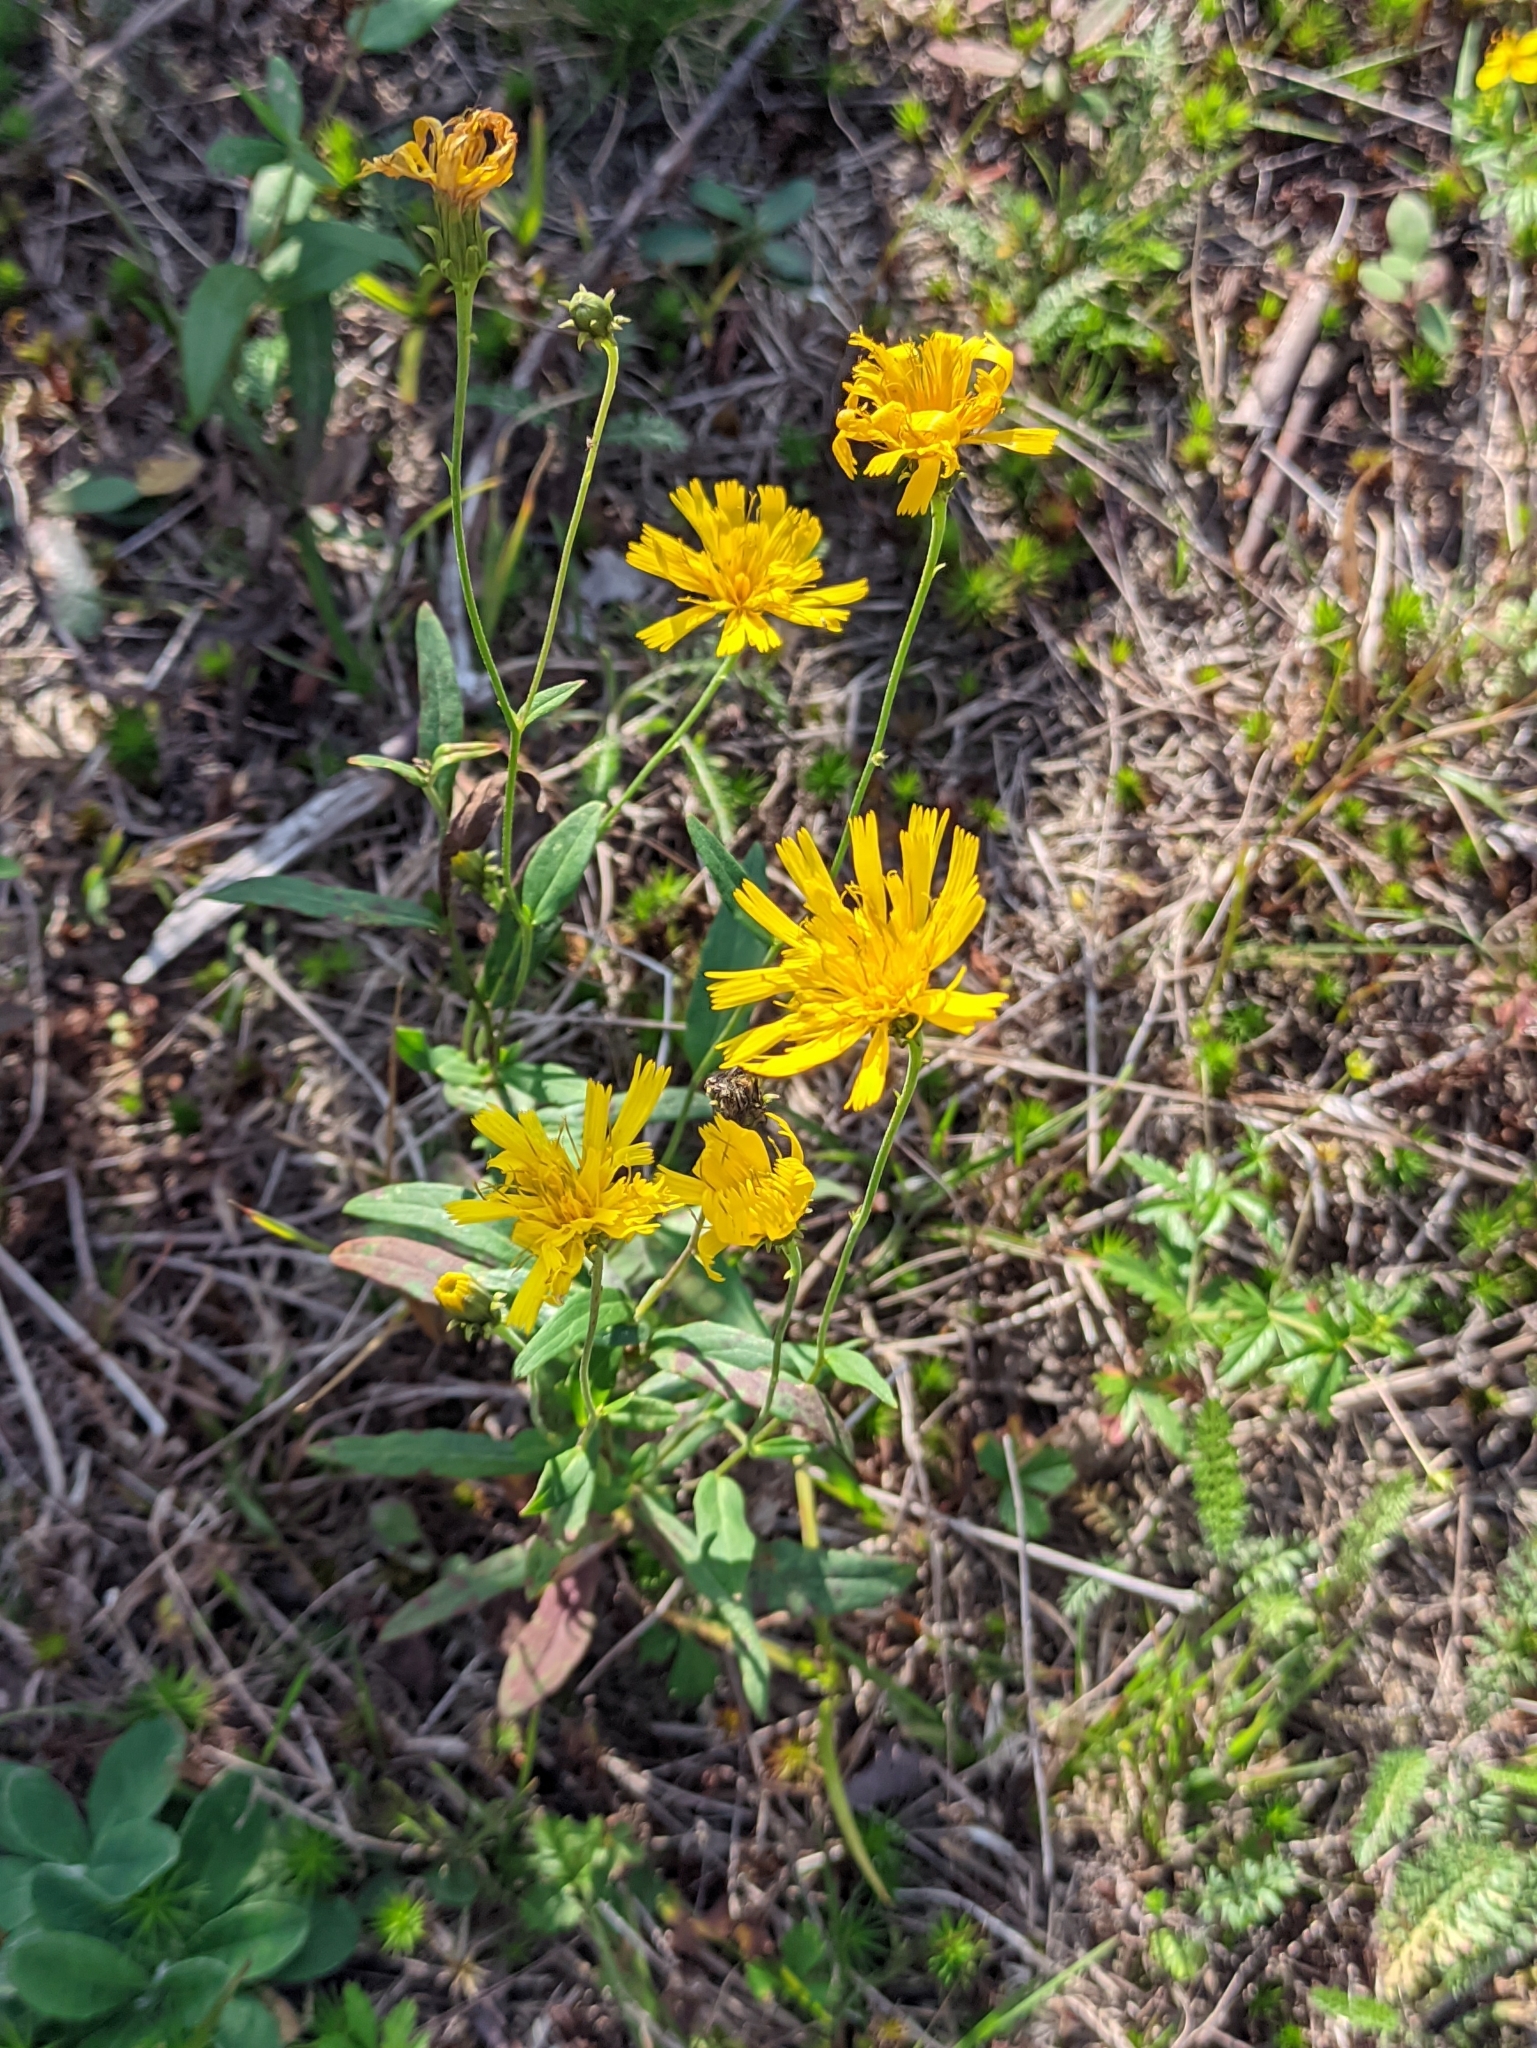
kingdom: Plantae
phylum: Tracheophyta
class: Magnoliopsida
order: Asterales
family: Asteraceae
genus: Hieracium
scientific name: Hieracium umbellatum
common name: Northern hawkweed
